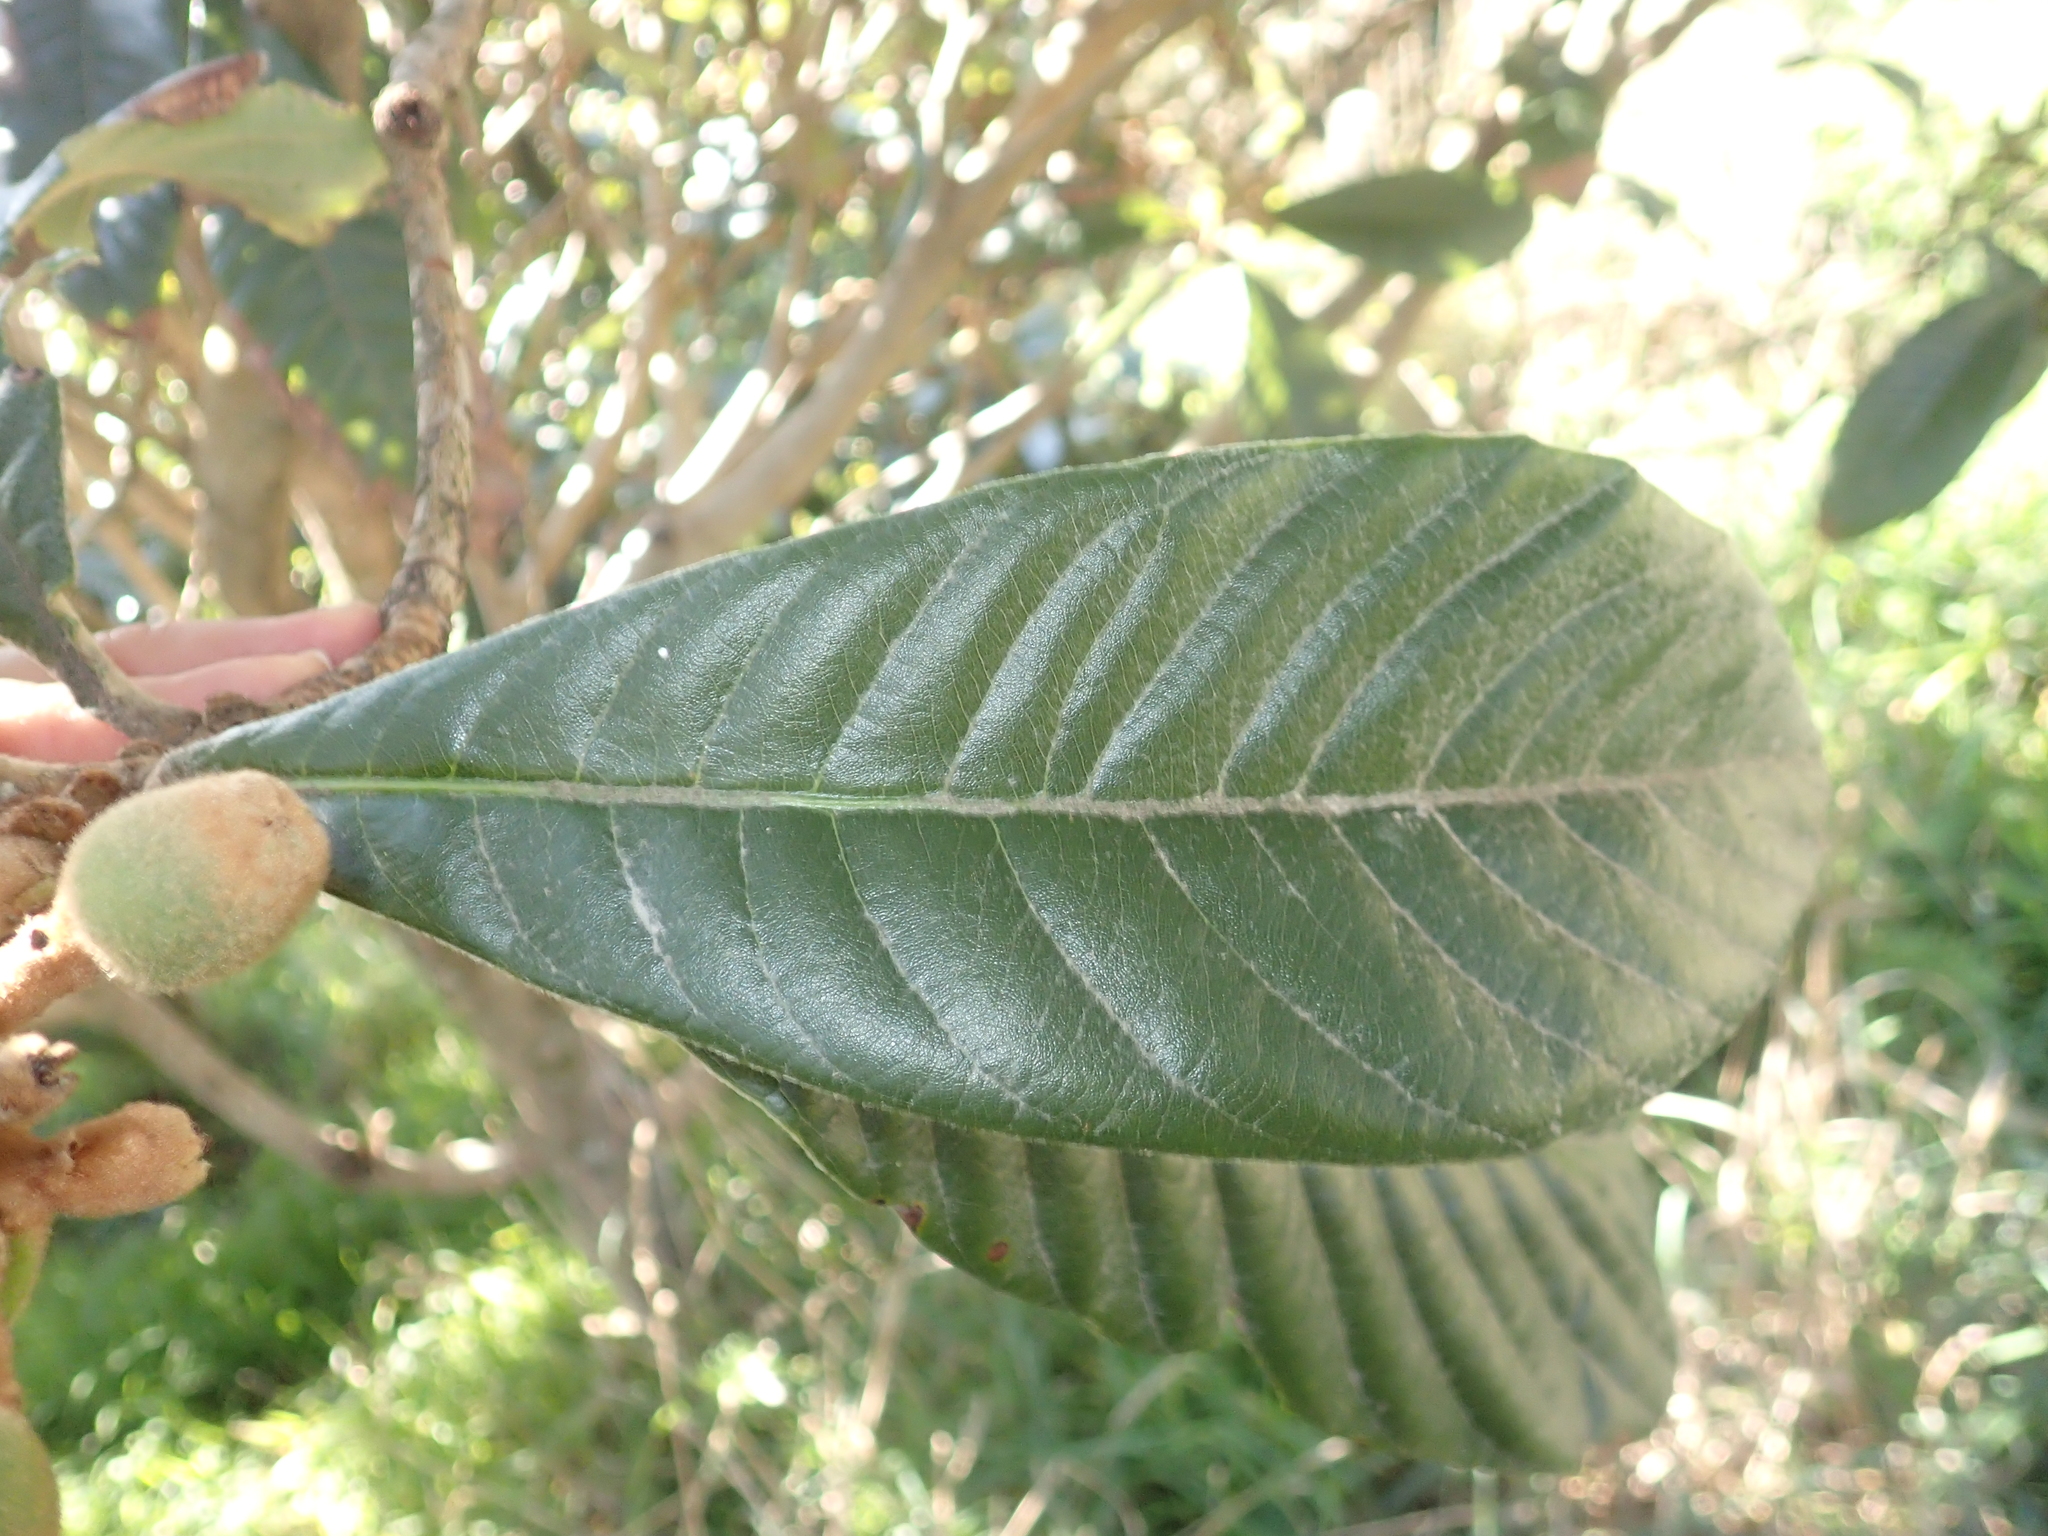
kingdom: Plantae
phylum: Tracheophyta
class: Magnoliopsida
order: Rosales
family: Rosaceae
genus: Rhaphiolepis
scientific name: Rhaphiolepis bibas
